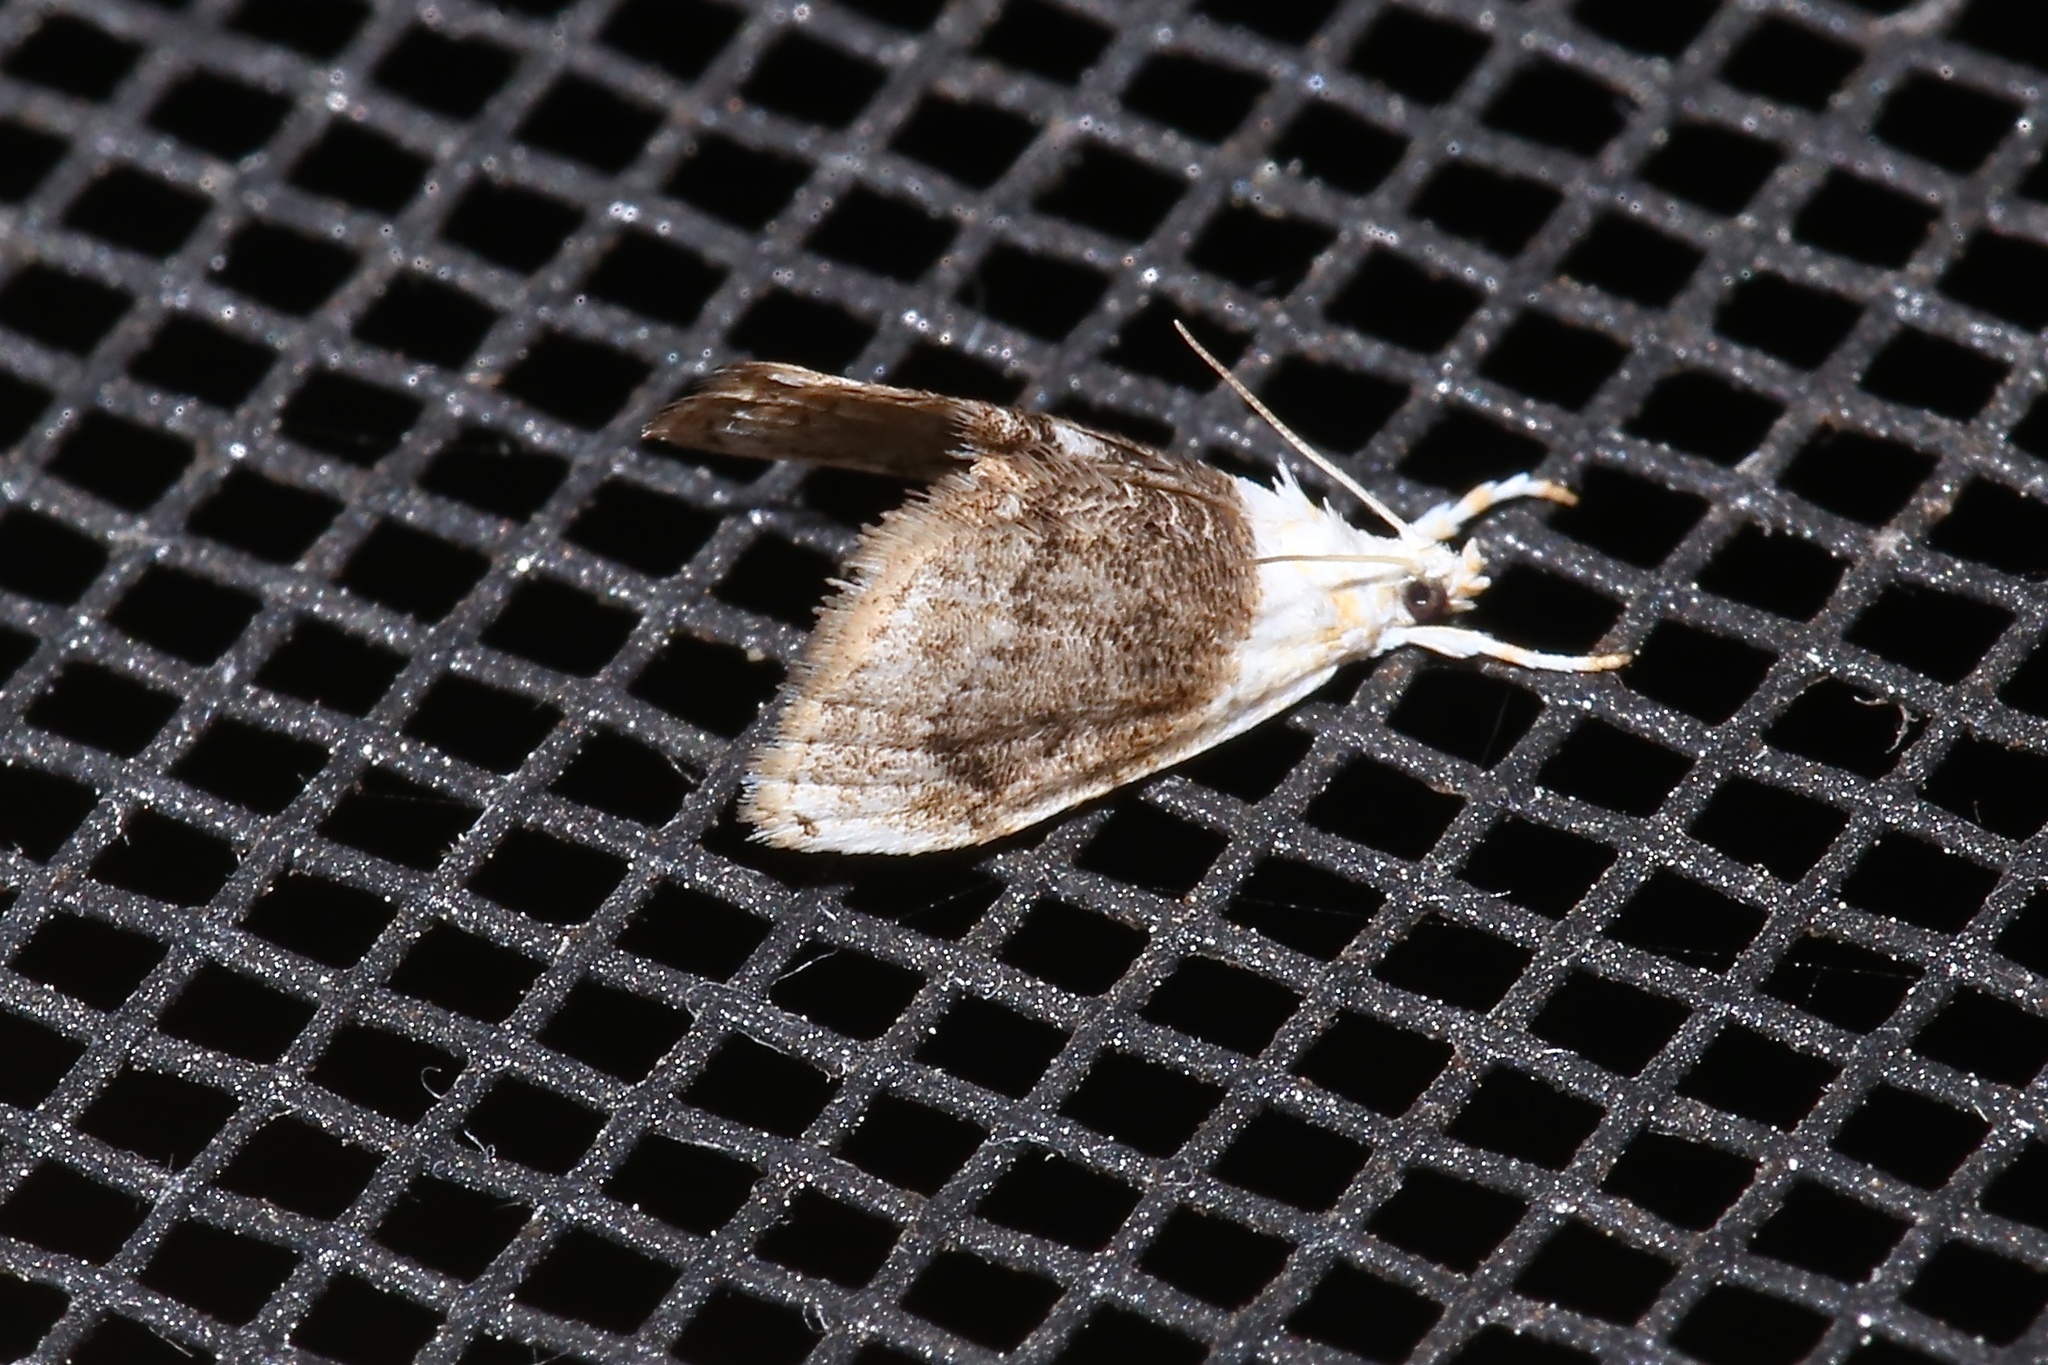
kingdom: Animalia
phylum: Arthropoda
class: Insecta
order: Lepidoptera
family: Crambidae
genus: Lipocosmodes
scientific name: Lipocosmodes fuliginosalis
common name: Sooty lipocosmodes moth
